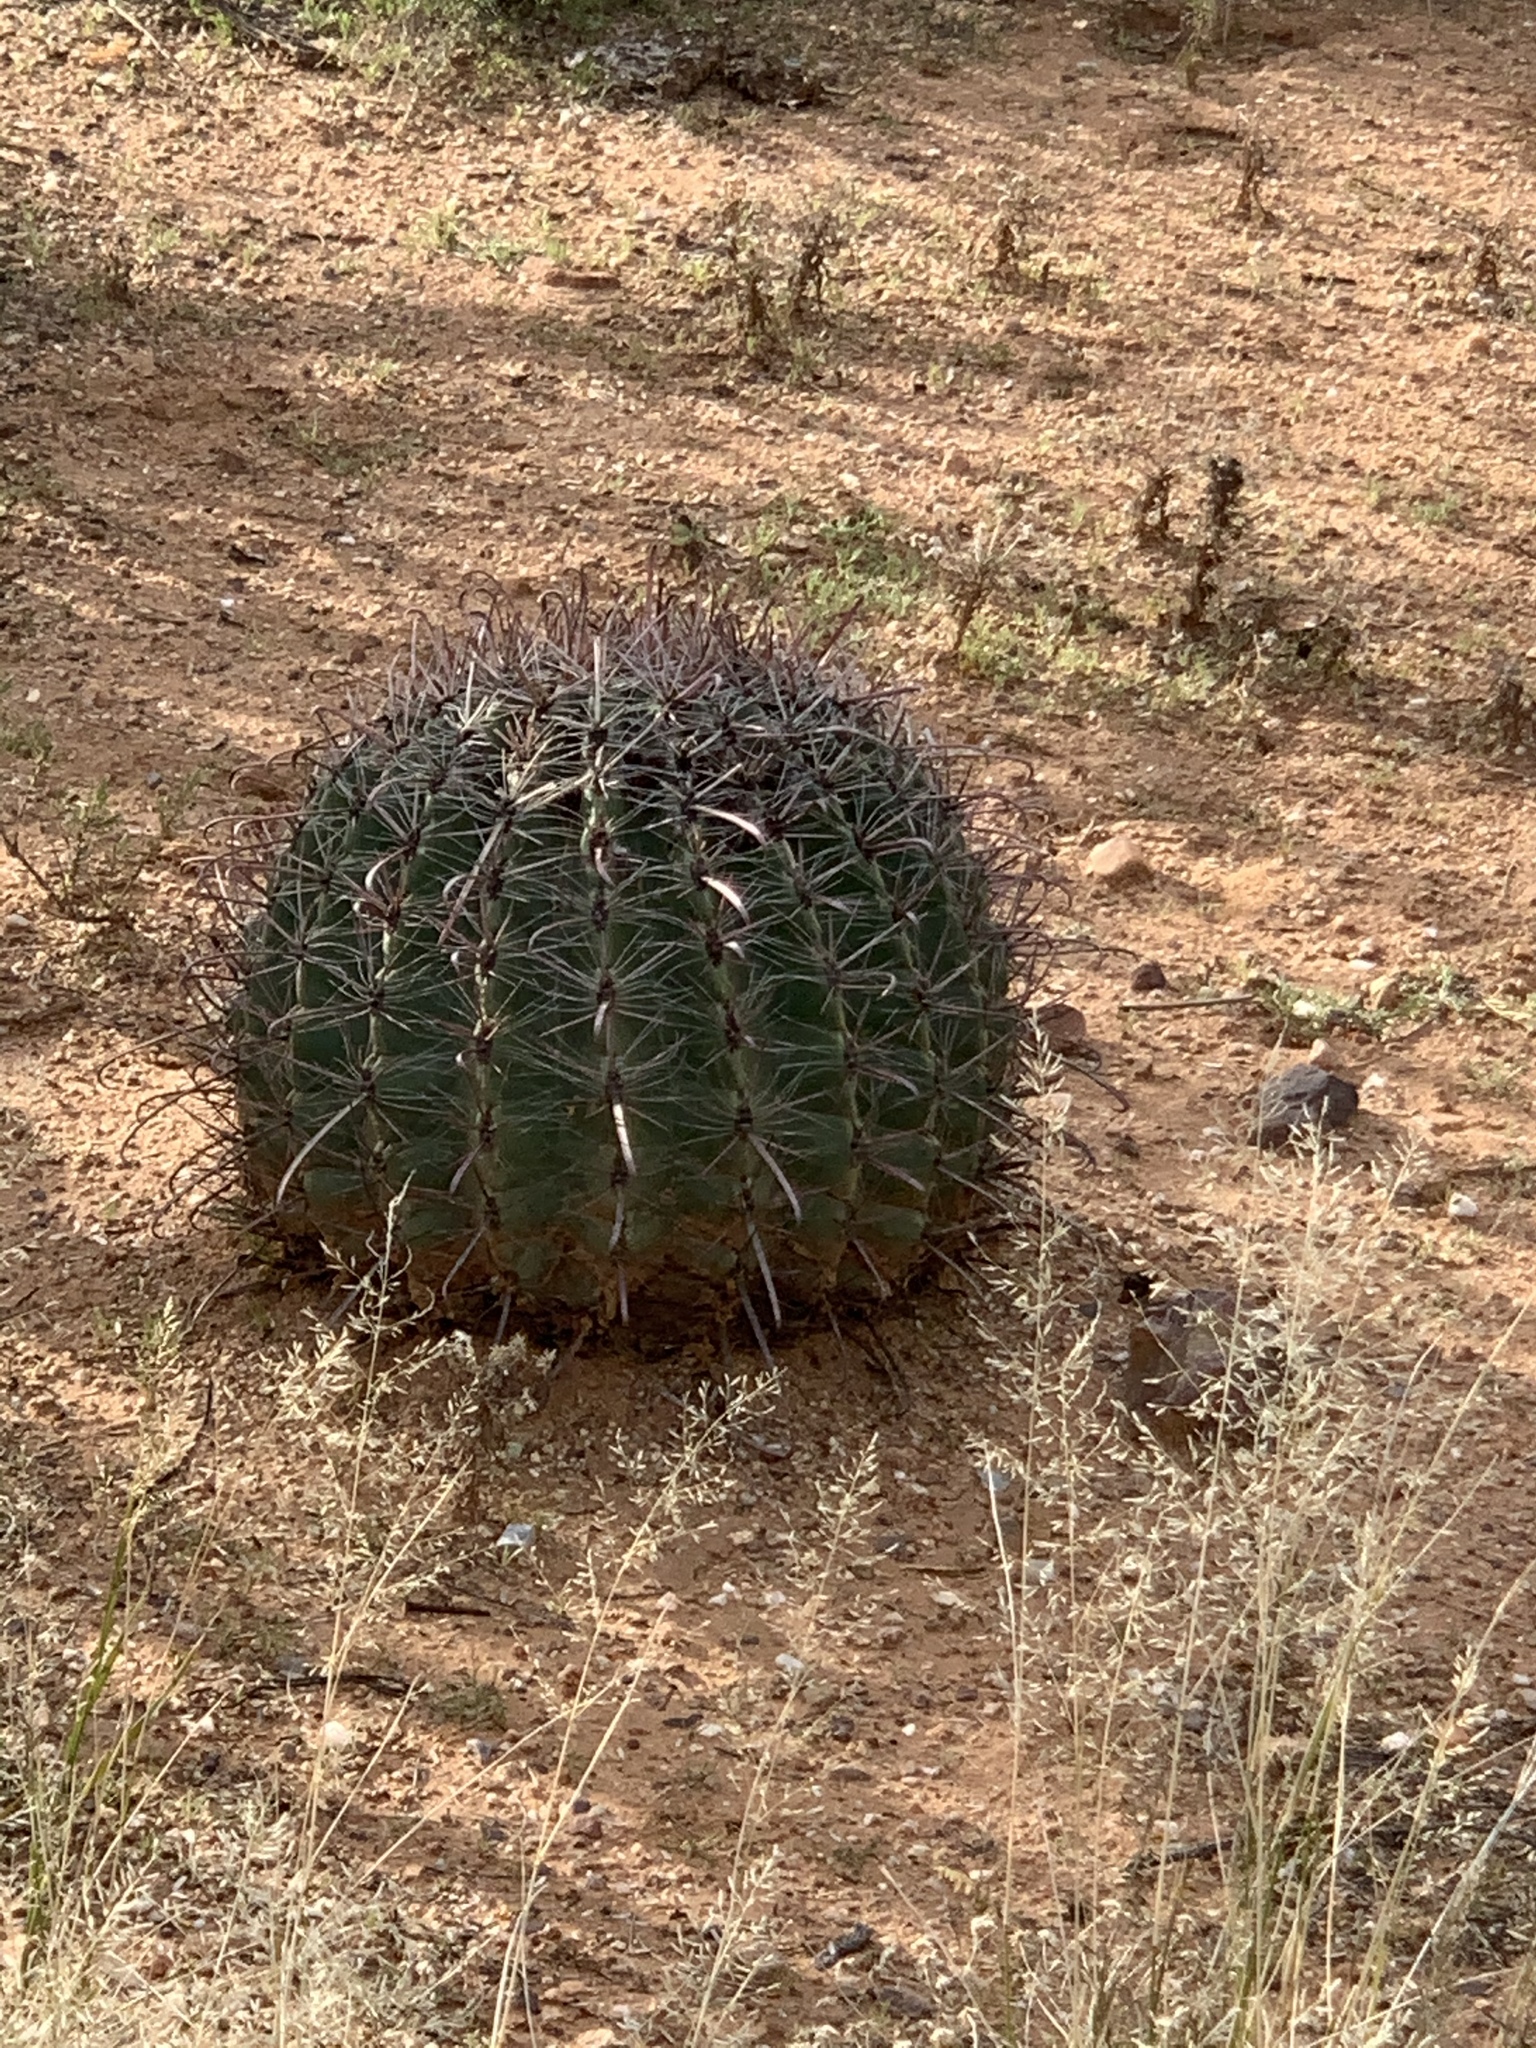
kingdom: Plantae
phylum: Tracheophyta
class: Magnoliopsida
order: Caryophyllales
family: Cactaceae
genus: Ferocactus
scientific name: Ferocactus wislizeni
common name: Candy barrel cactus
